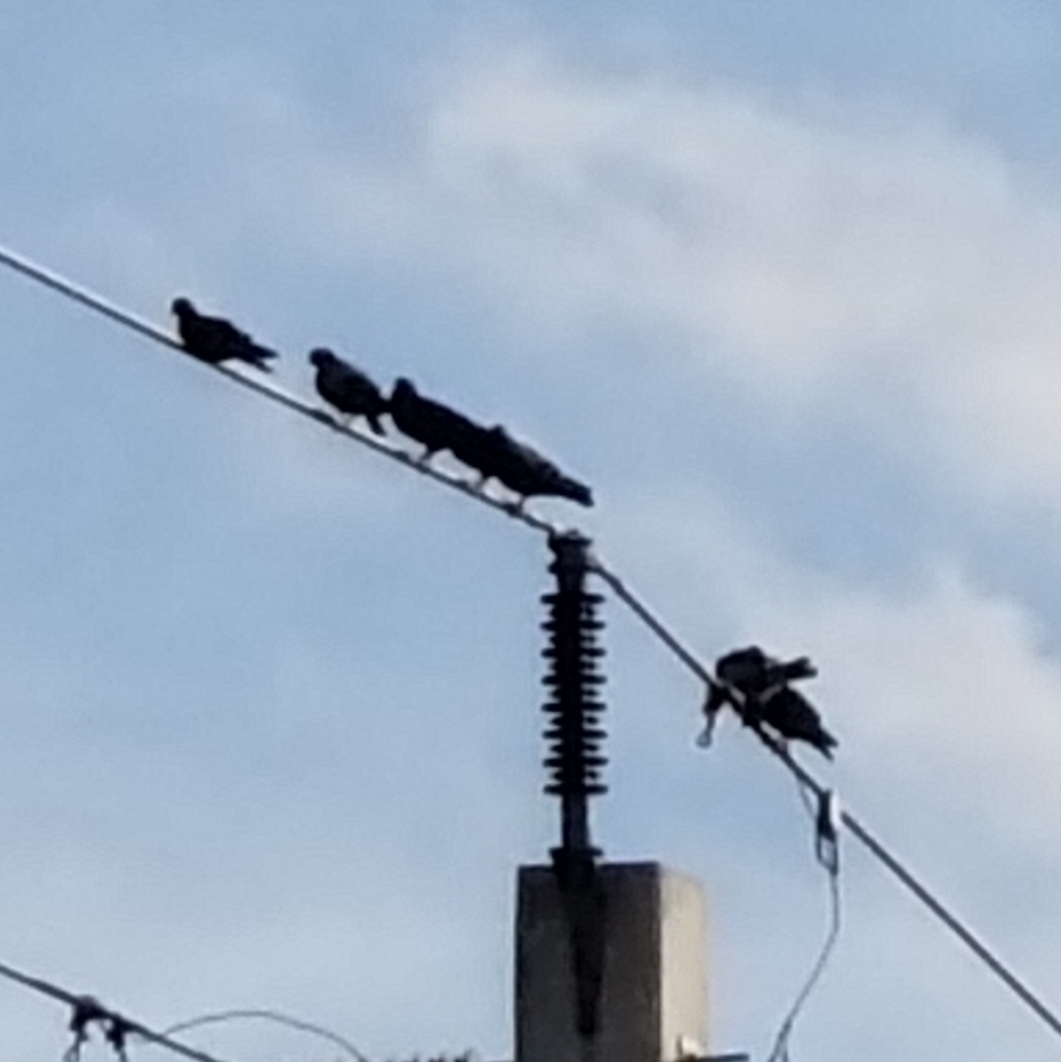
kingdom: Animalia
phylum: Chordata
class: Aves
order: Columbiformes
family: Columbidae
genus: Columba
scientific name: Columba livia
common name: Rock pigeon
